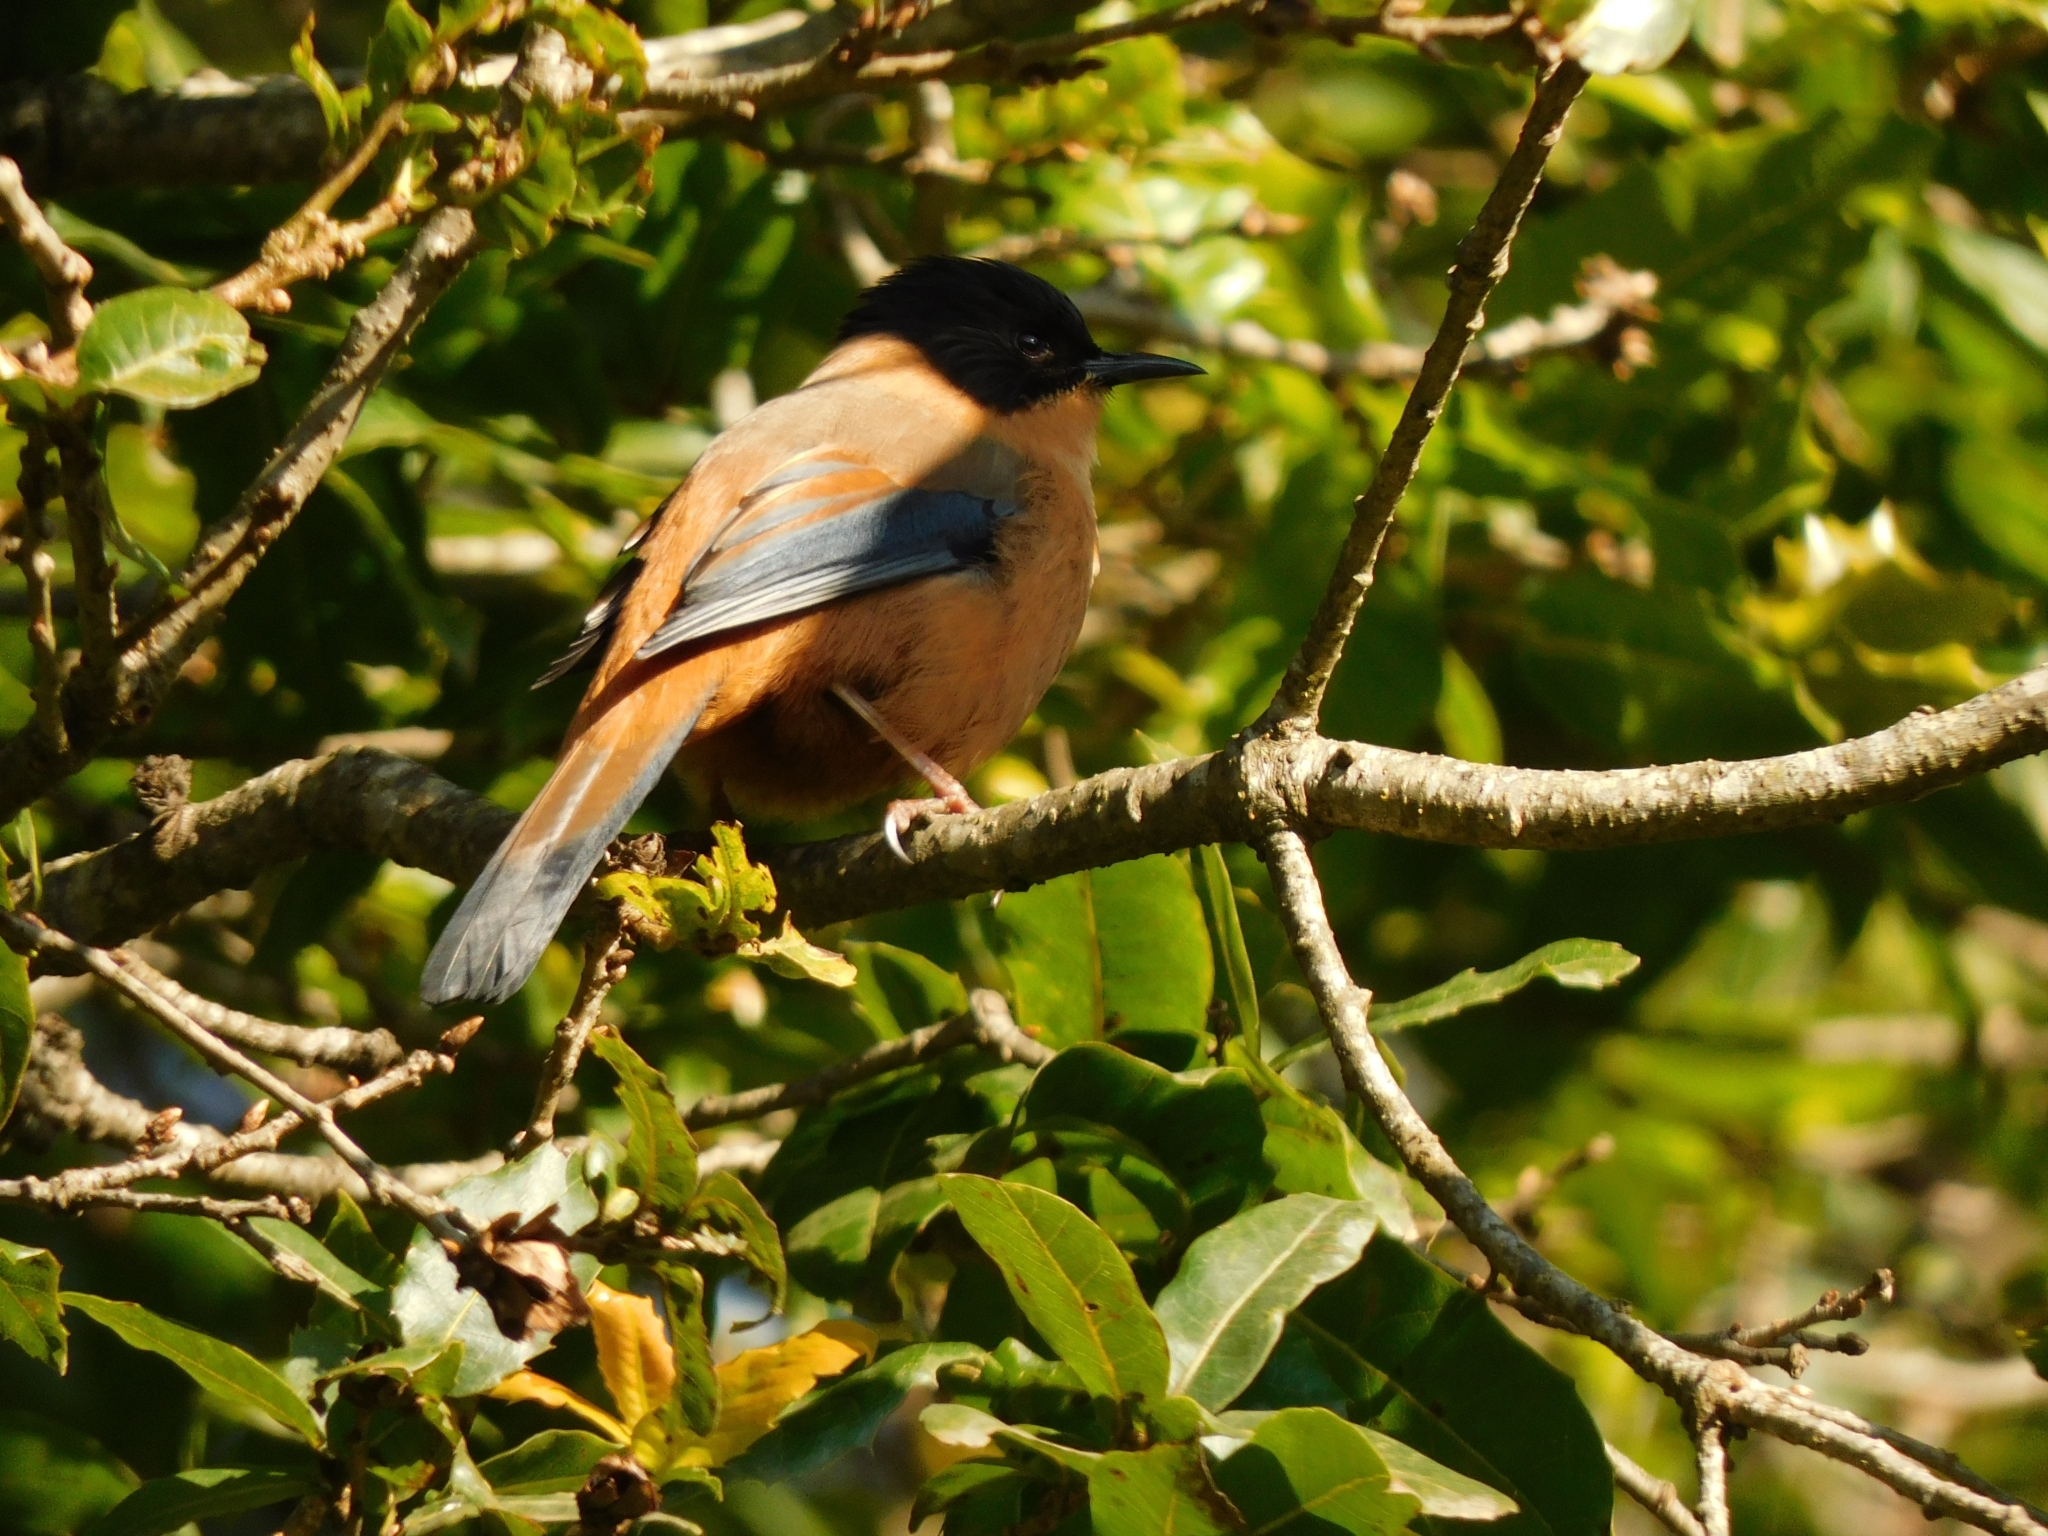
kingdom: Animalia
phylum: Chordata
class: Aves
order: Passeriformes
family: Leiothrichidae
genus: Heterophasia
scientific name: Heterophasia capistrata
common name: Rufous sibia
